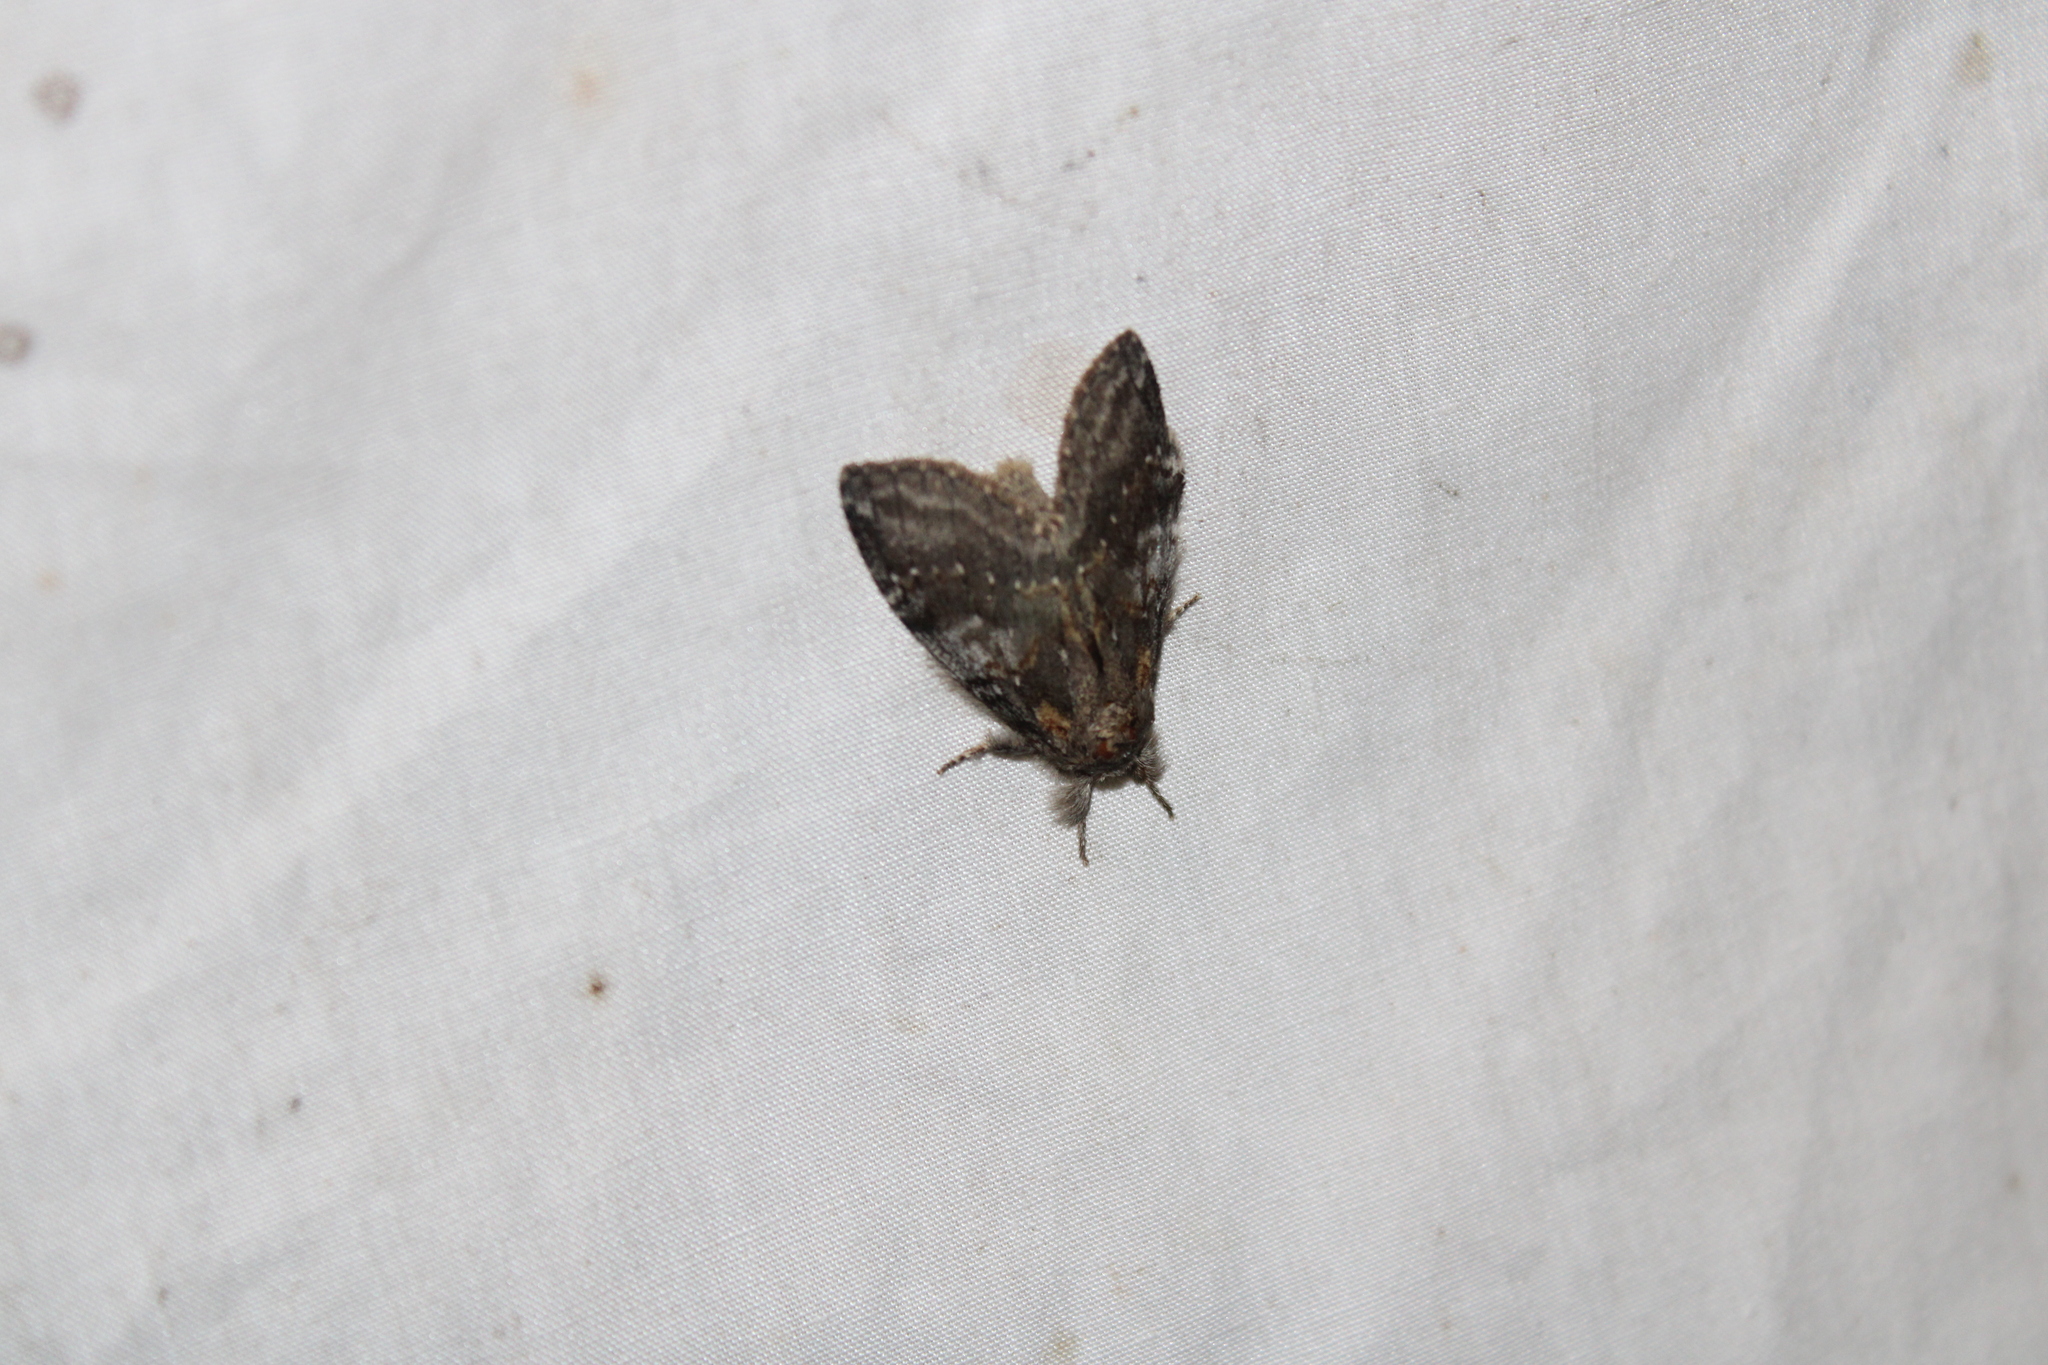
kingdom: Animalia
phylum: Arthropoda
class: Insecta
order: Lepidoptera
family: Notodontidae
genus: Peridea
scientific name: Peridea angulosa
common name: Angulose prominent
